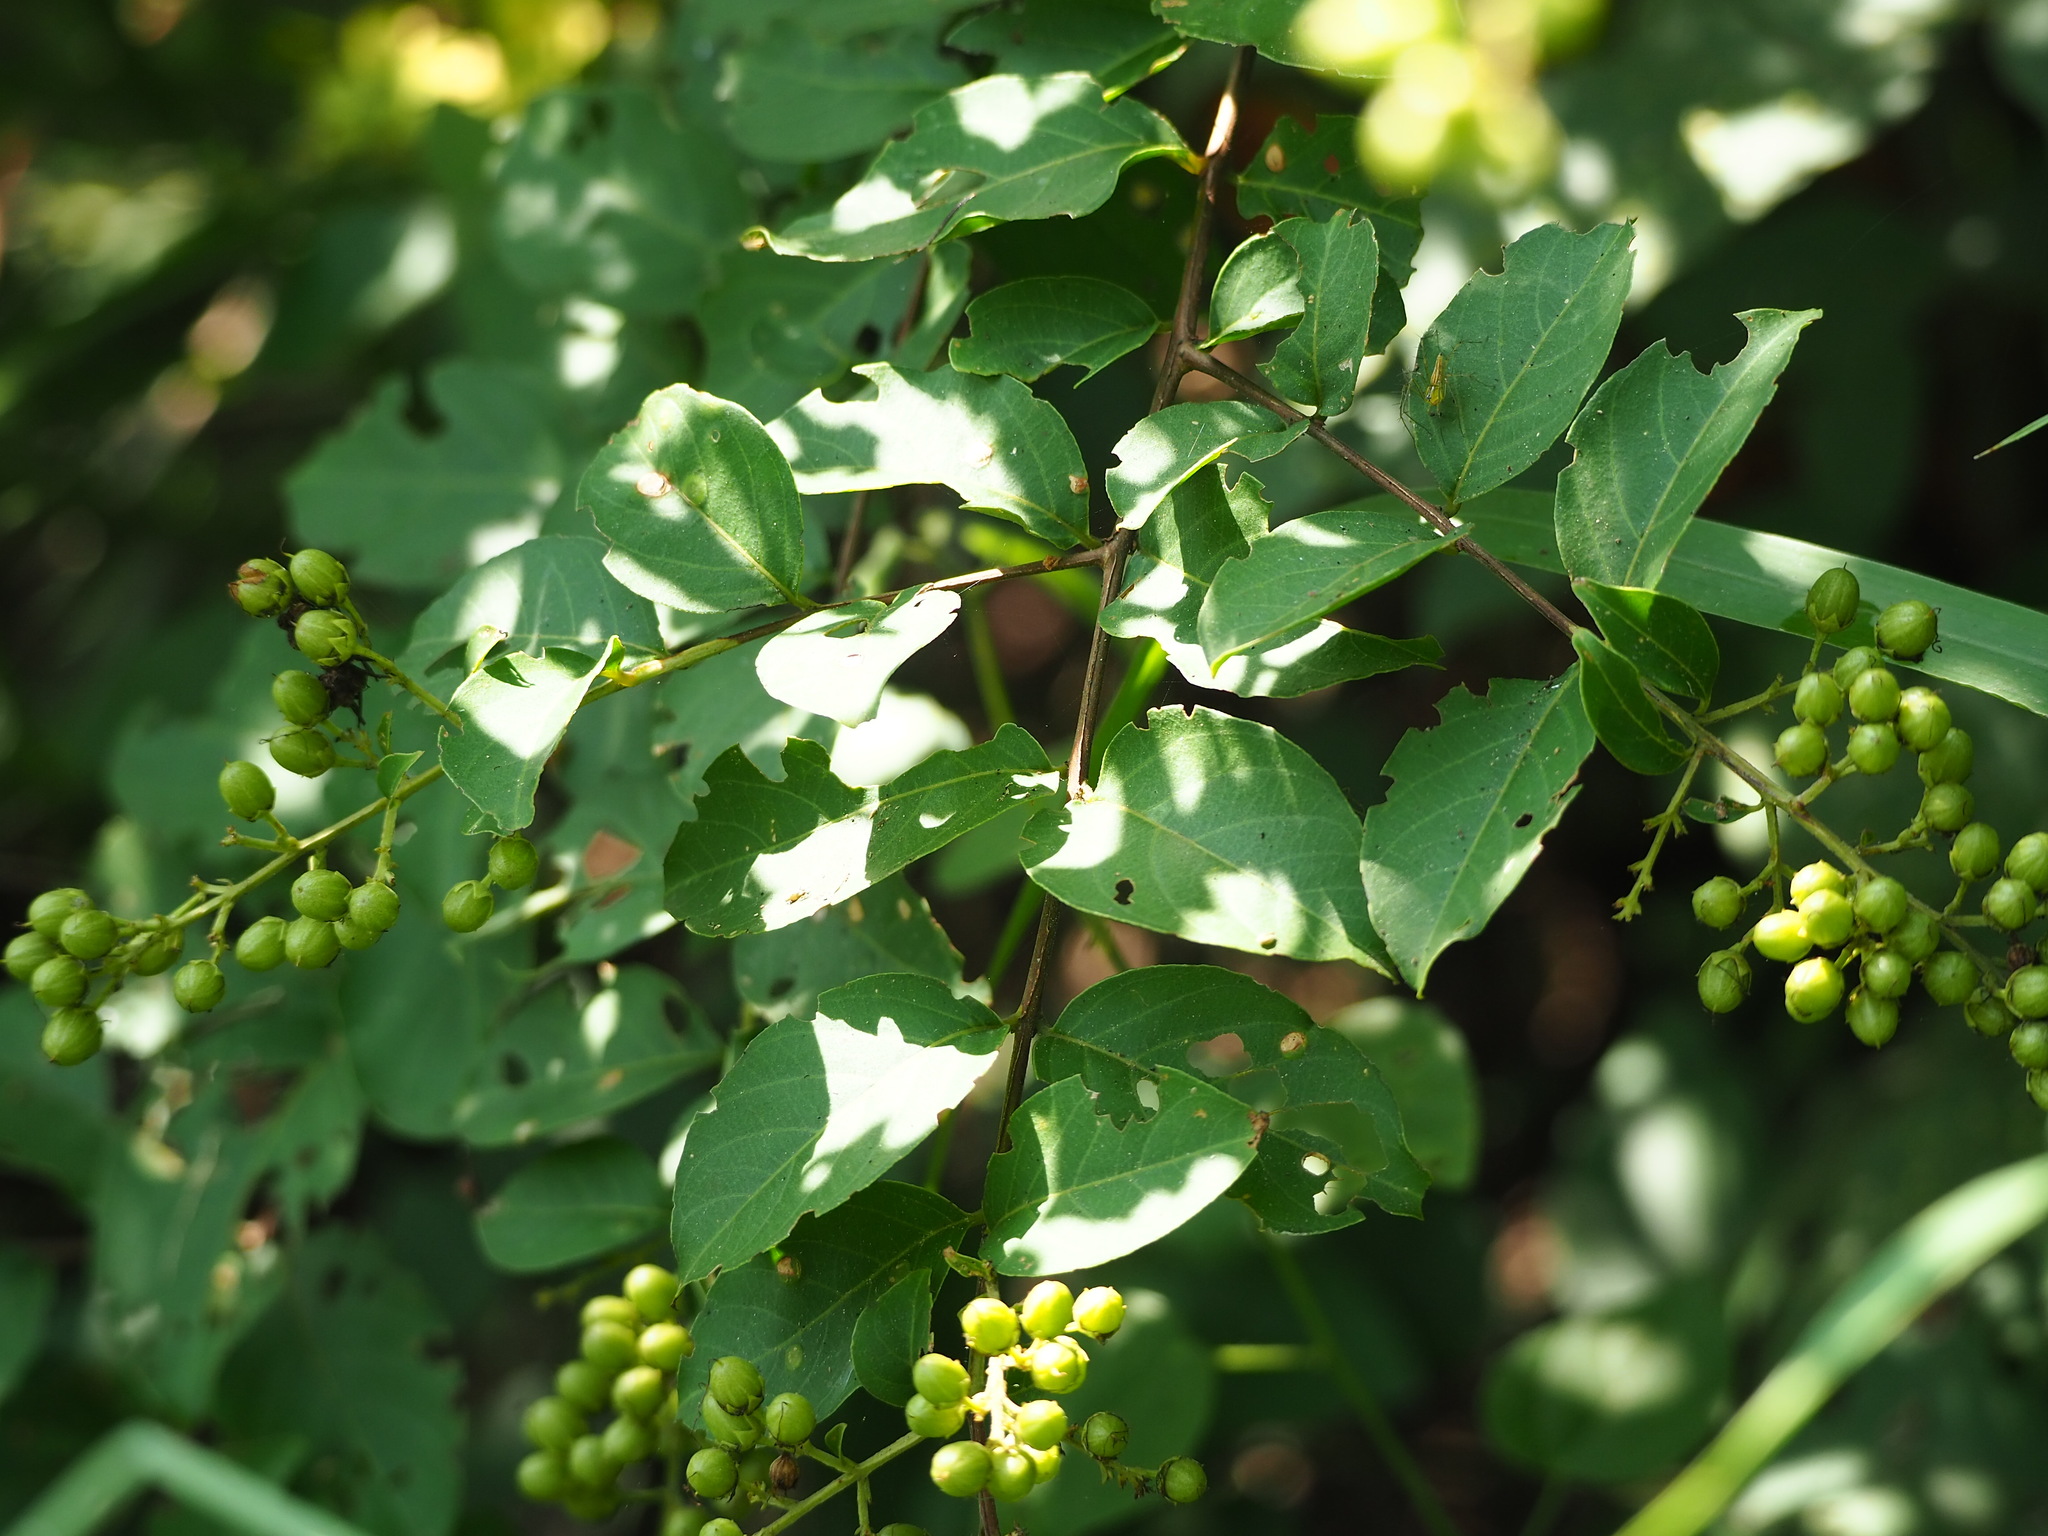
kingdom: Plantae
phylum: Tracheophyta
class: Magnoliopsida
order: Myrtales
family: Lythraceae
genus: Lagerstroemia
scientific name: Lagerstroemia subcostata
